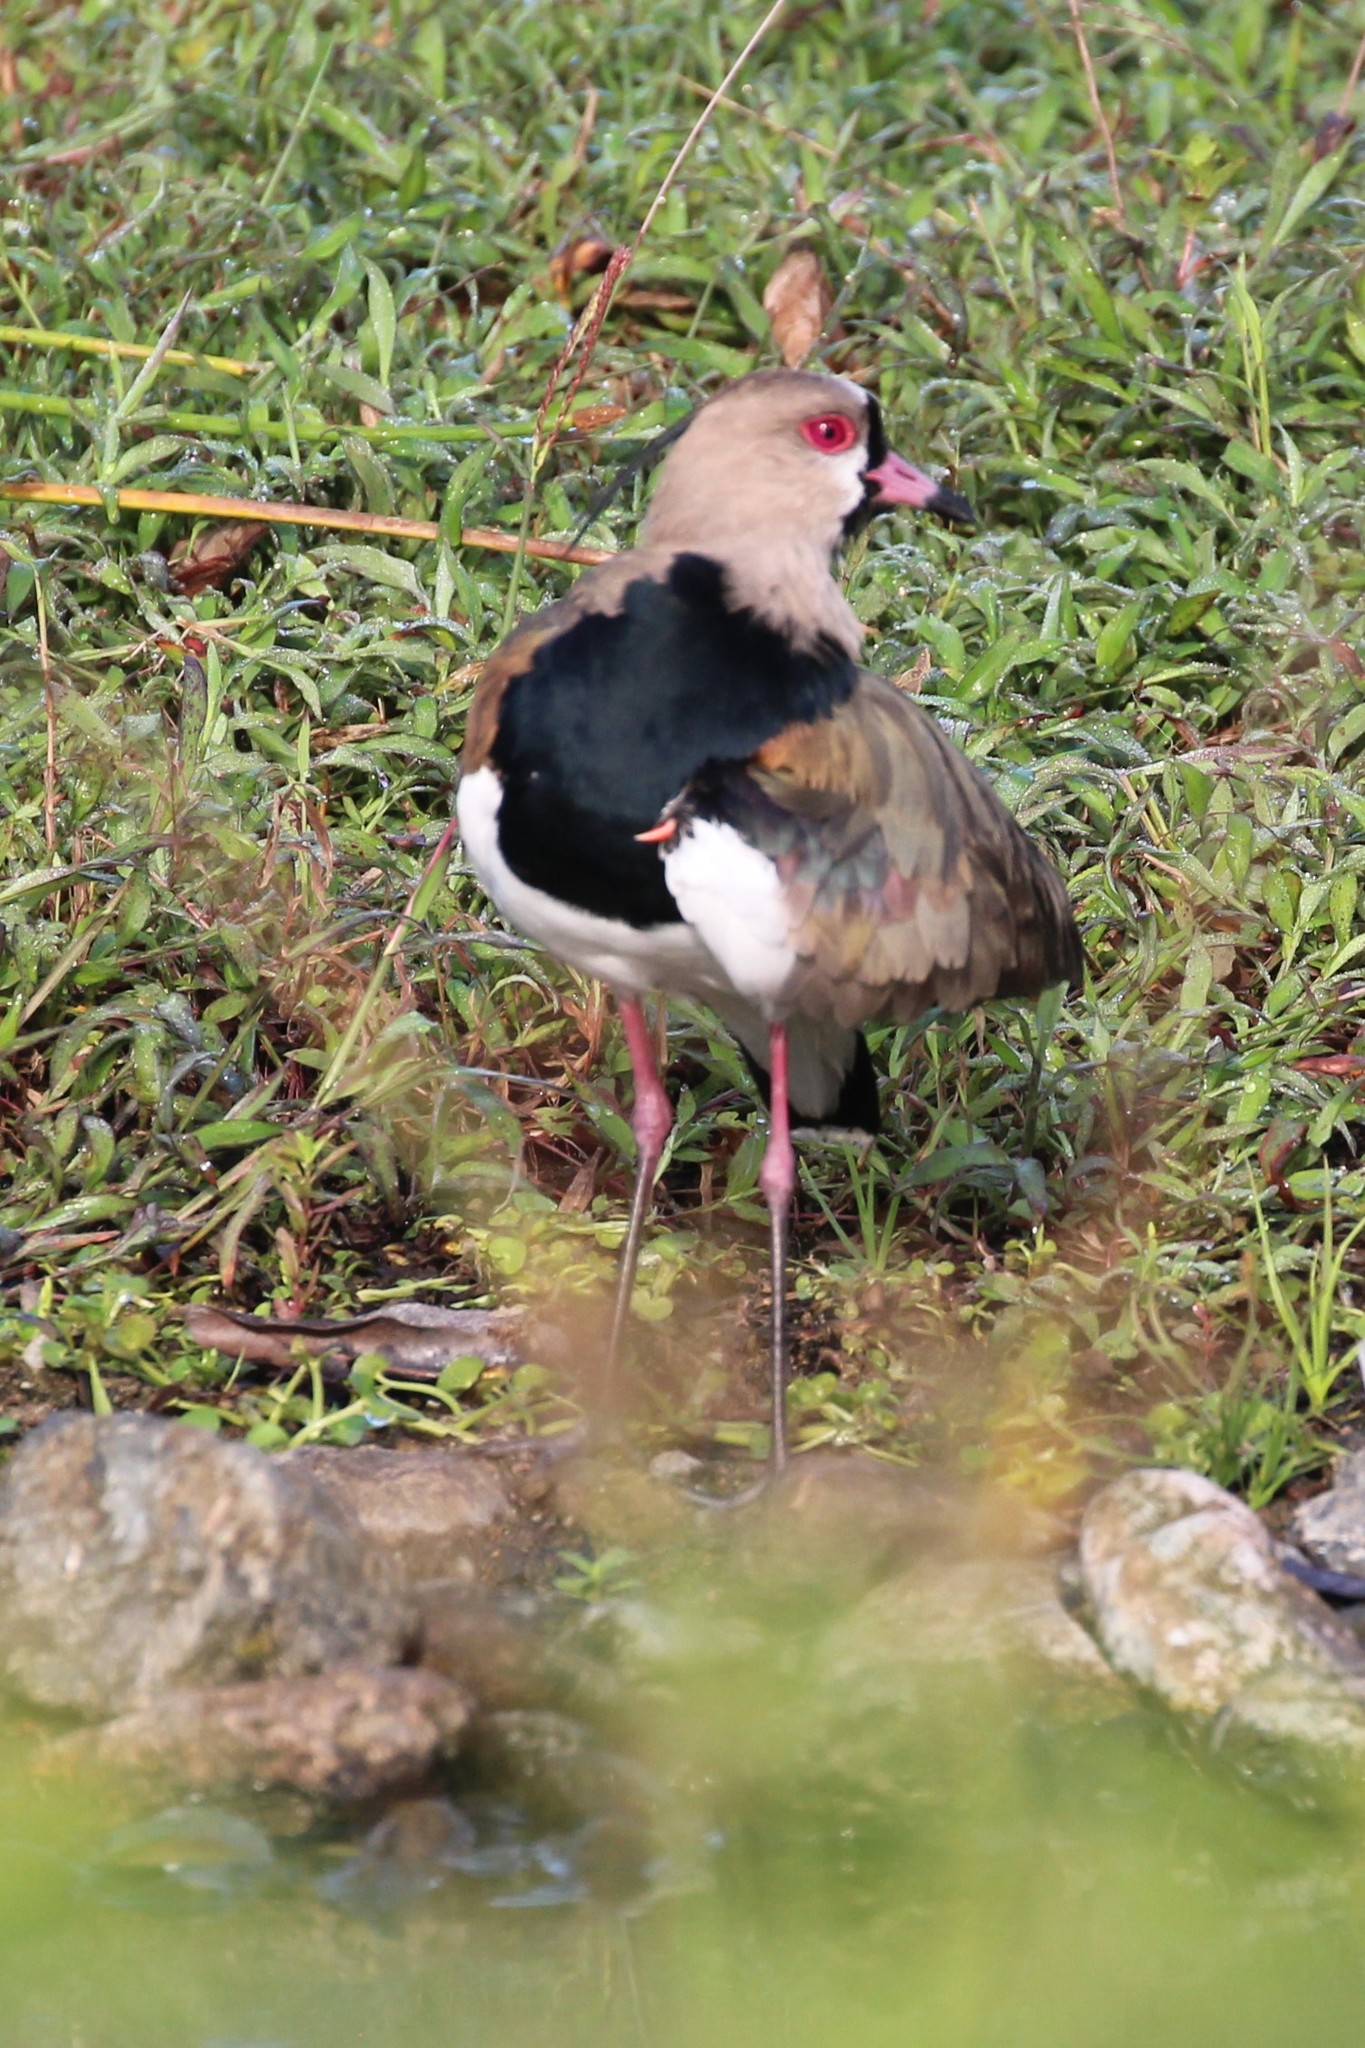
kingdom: Animalia
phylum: Chordata
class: Aves
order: Charadriiformes
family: Charadriidae
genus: Vanellus
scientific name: Vanellus chilensis
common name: Southern lapwing
